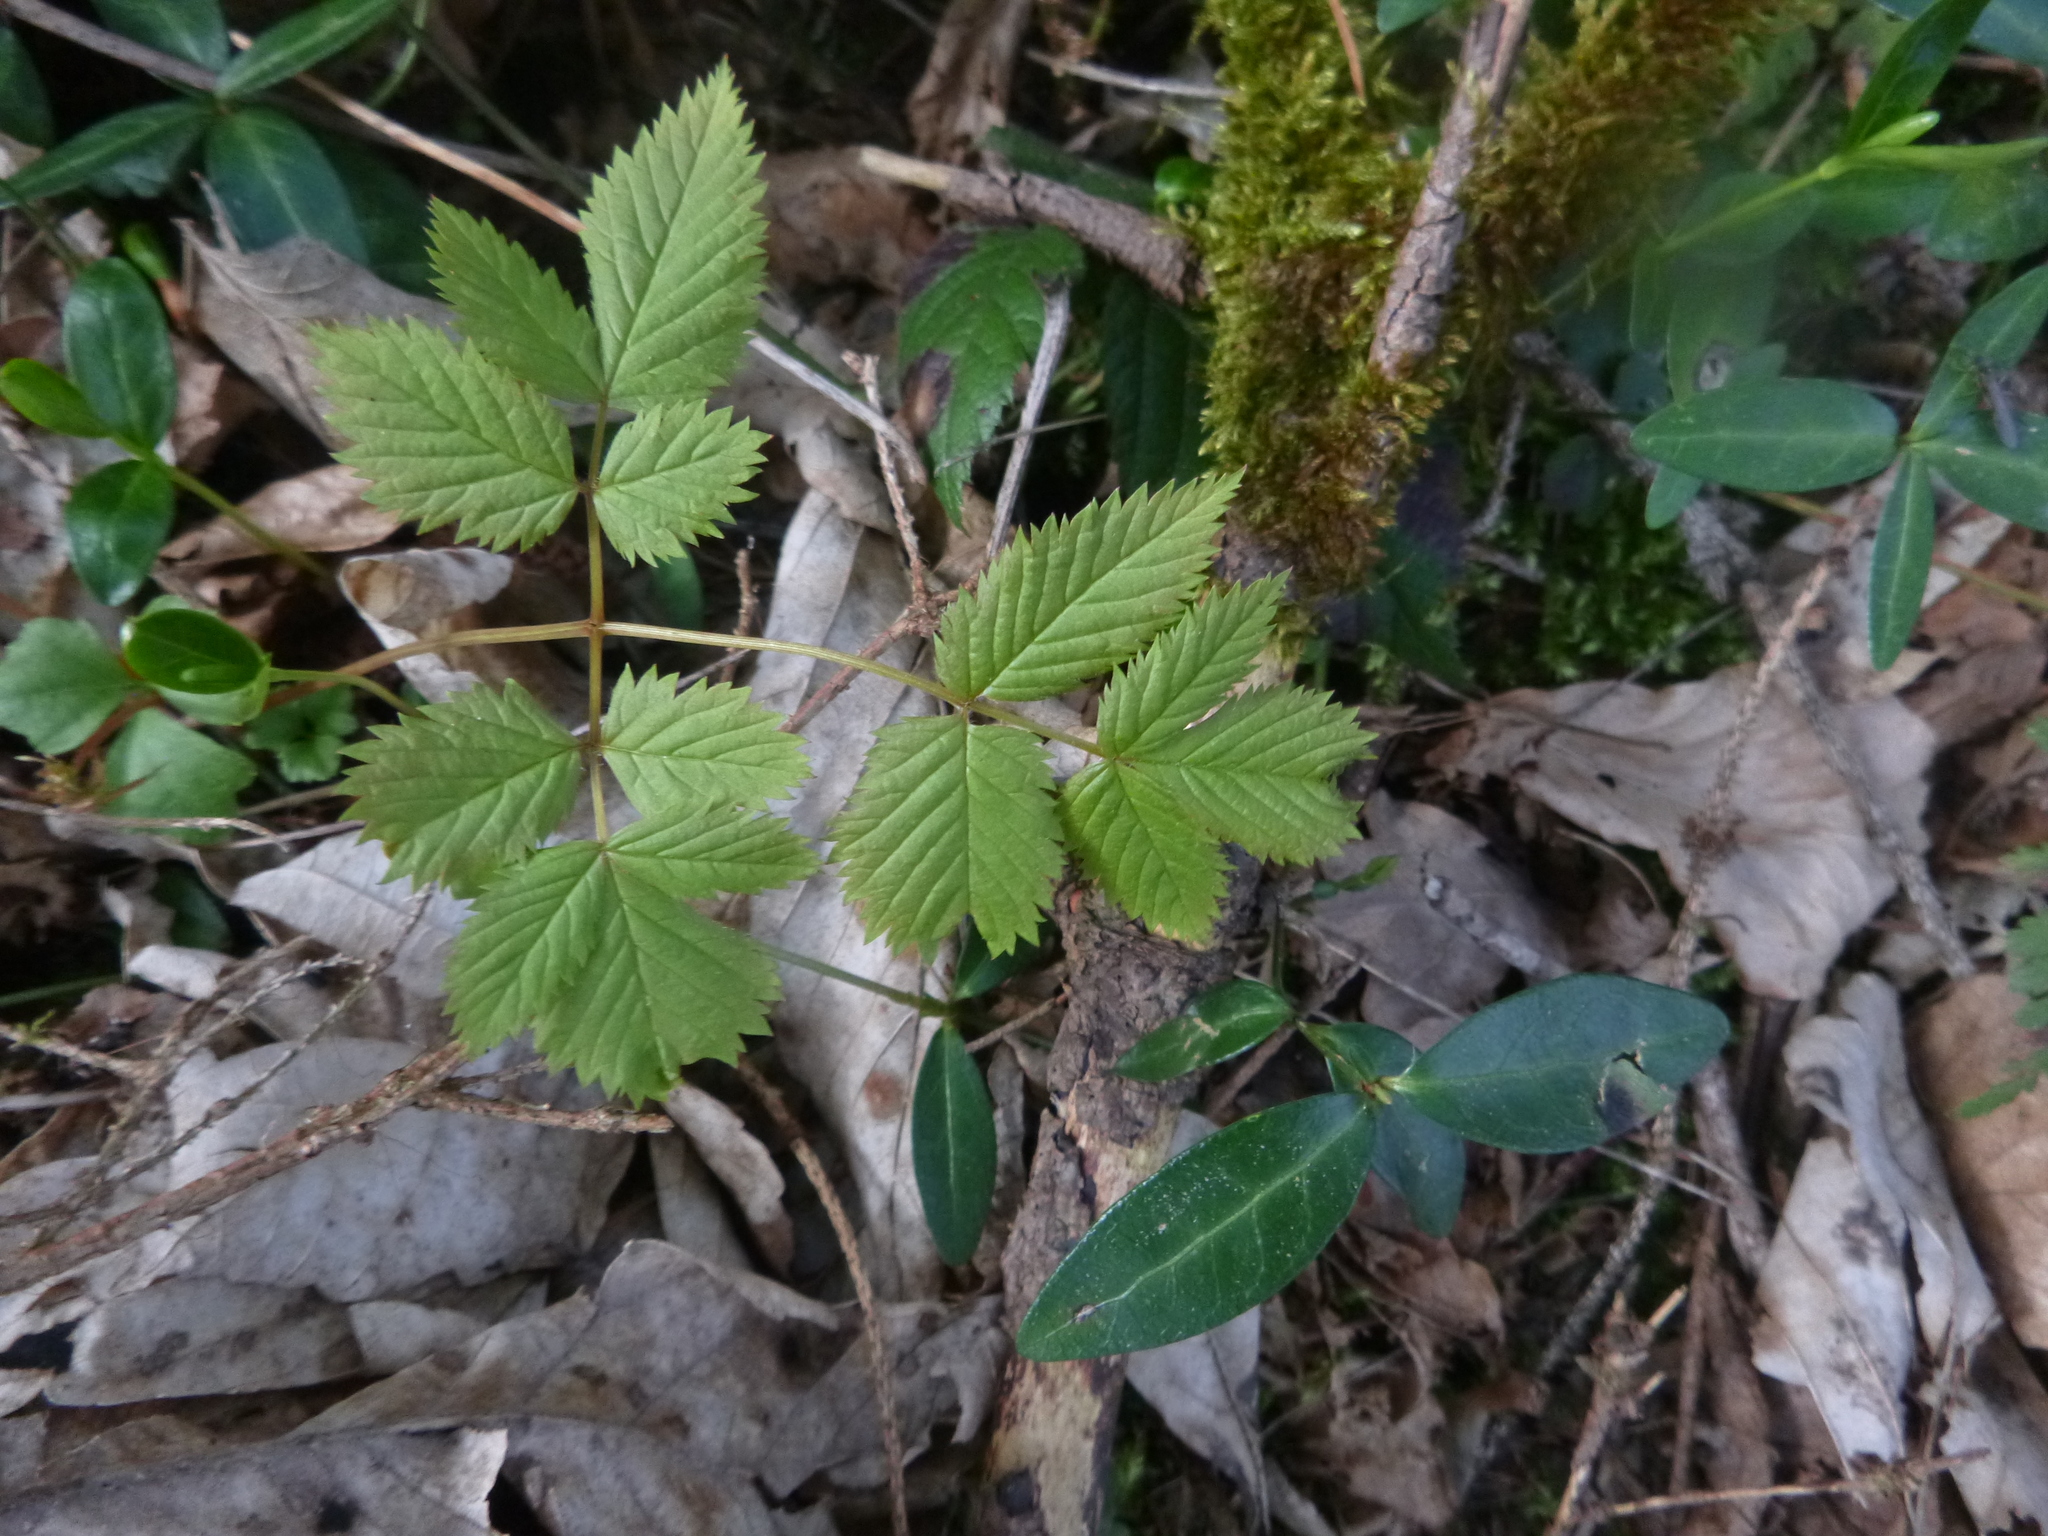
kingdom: Plantae
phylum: Tracheophyta
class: Magnoliopsida
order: Rosales
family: Rosaceae
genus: Aruncus
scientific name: Aruncus dioicus
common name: Buck's-beard
